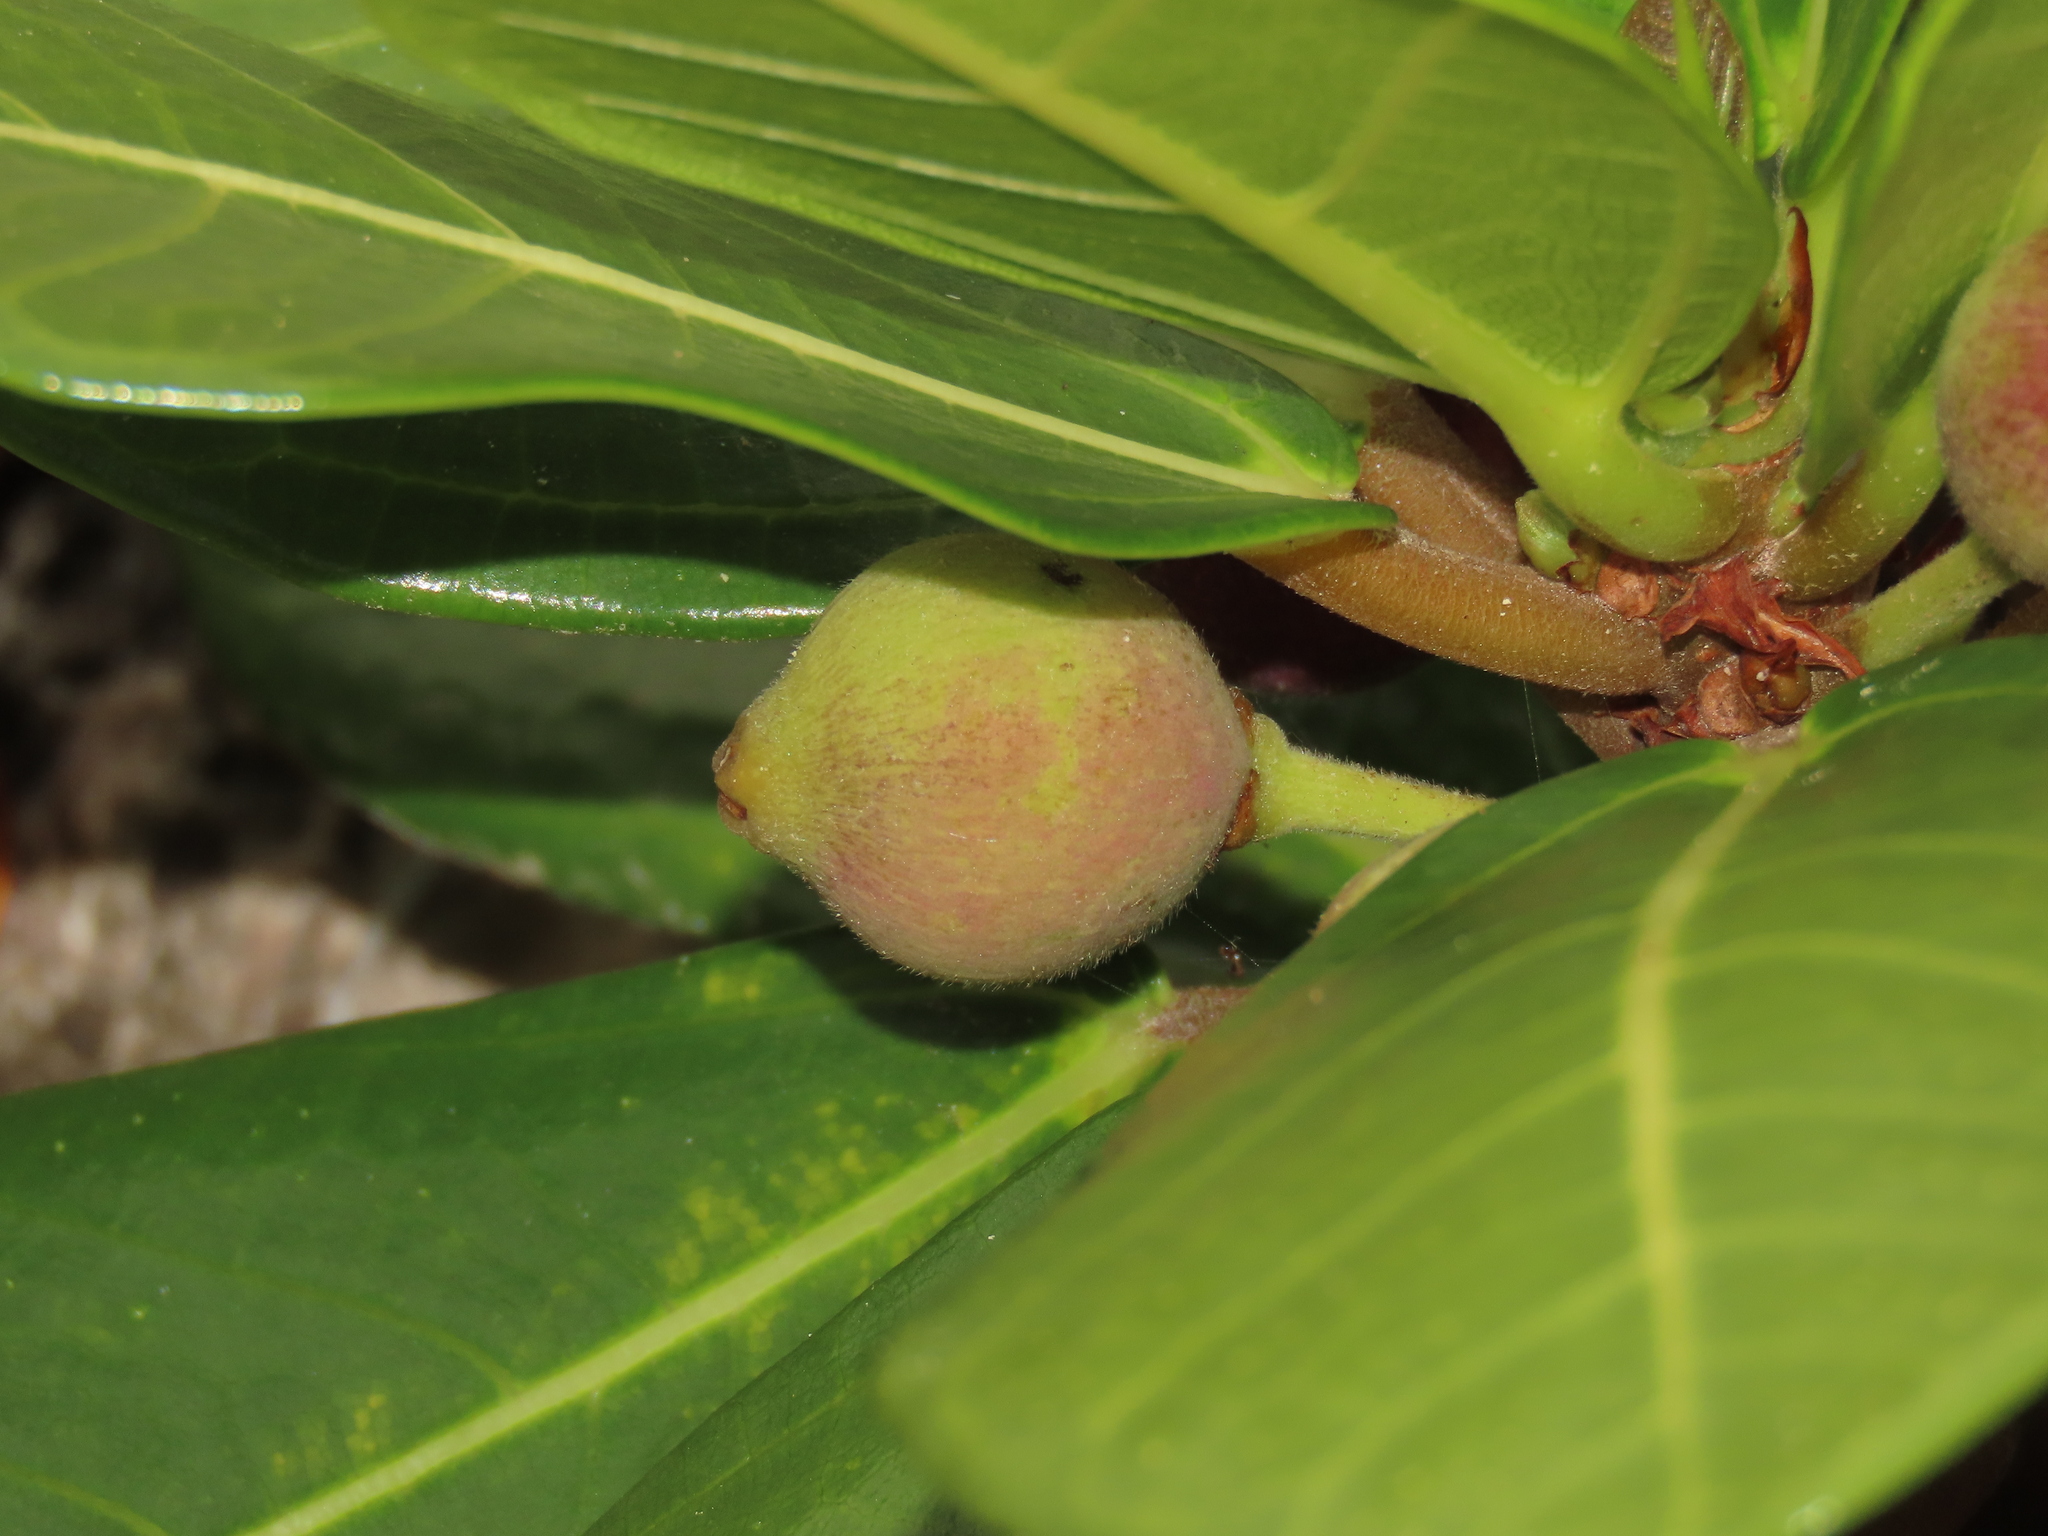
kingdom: Plantae
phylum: Tracheophyta
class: Magnoliopsida
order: Rosales
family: Moraceae
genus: Ficus
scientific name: Ficus pedunculosa
